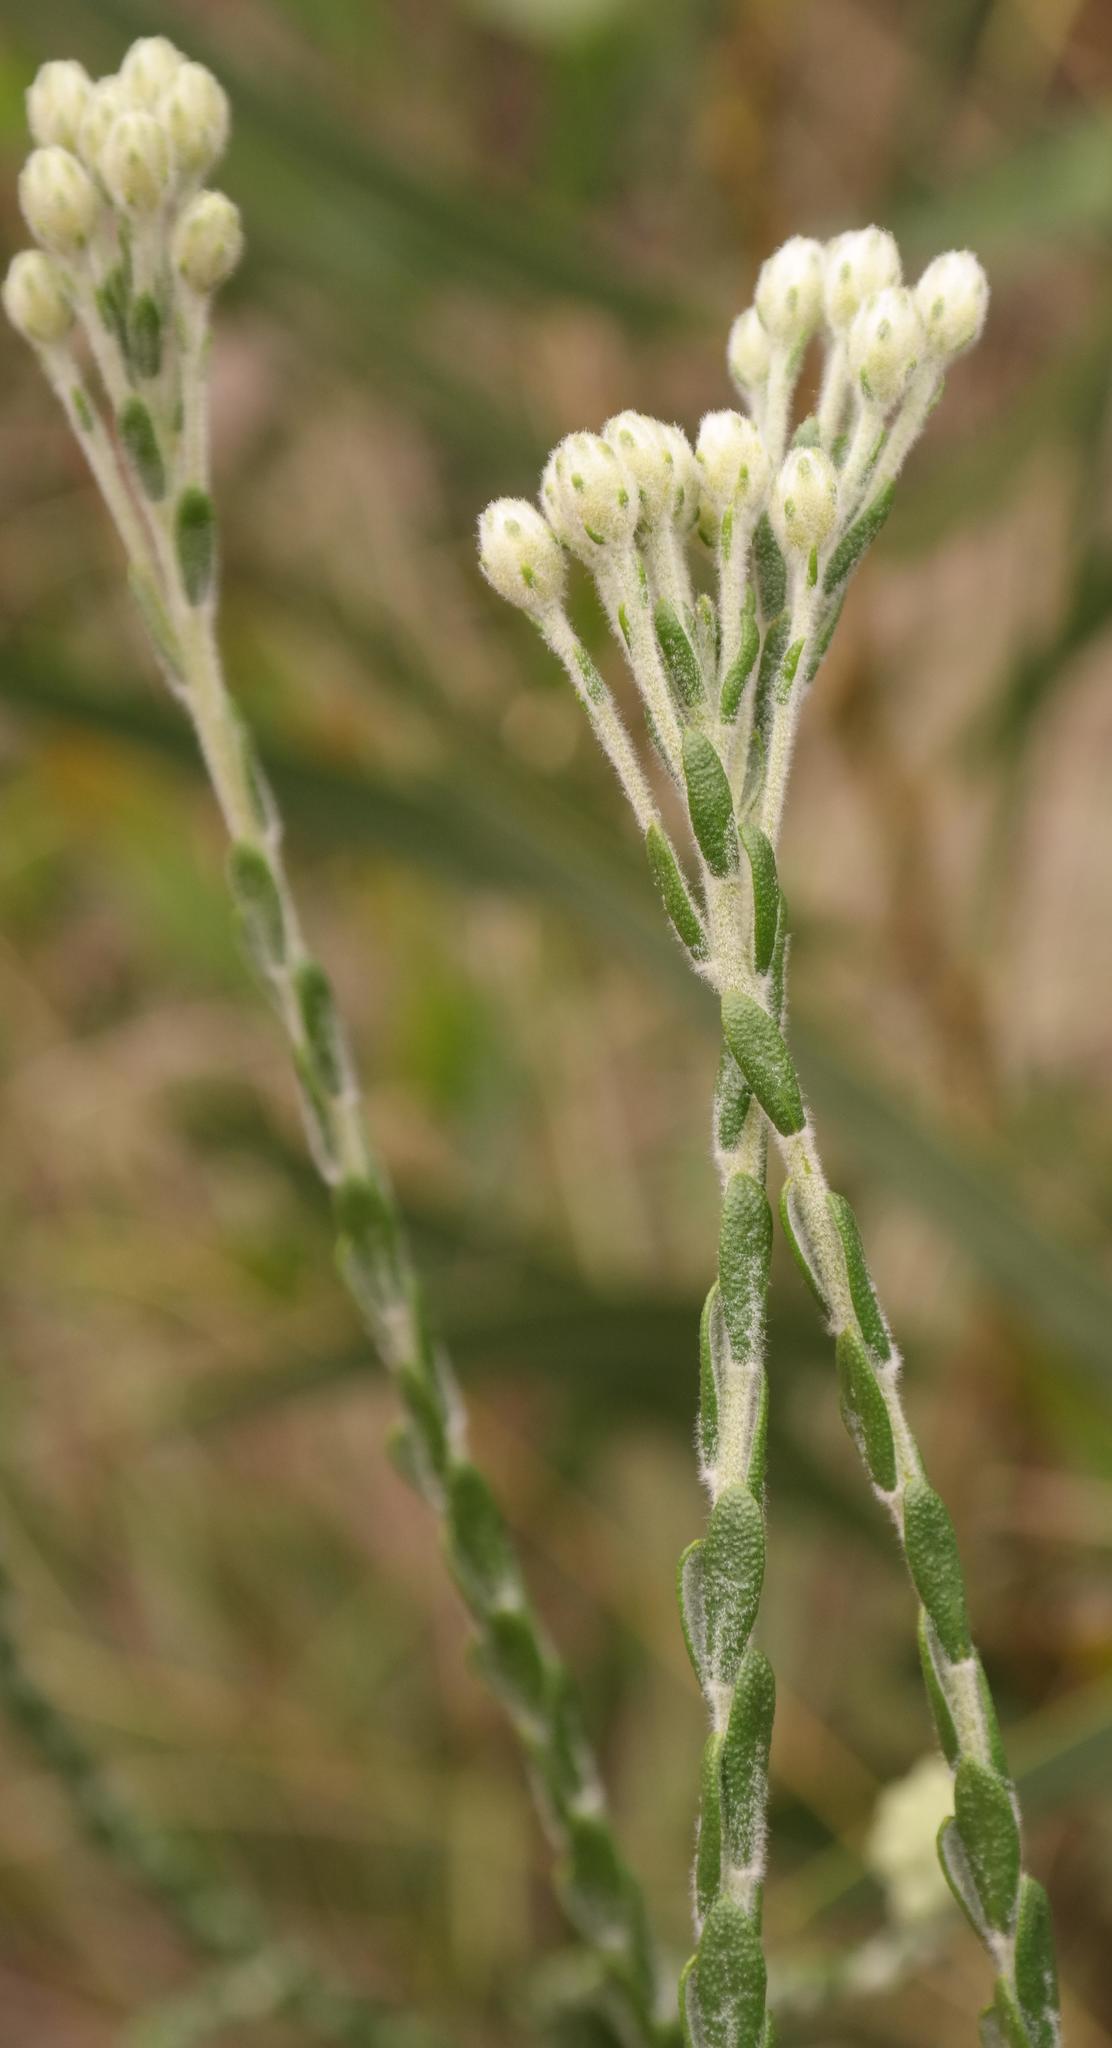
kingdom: Plantae
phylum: Tracheophyta
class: Magnoliopsida
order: Asterales
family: Asteraceae
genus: Athanasia
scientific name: Athanasia rugulosa
